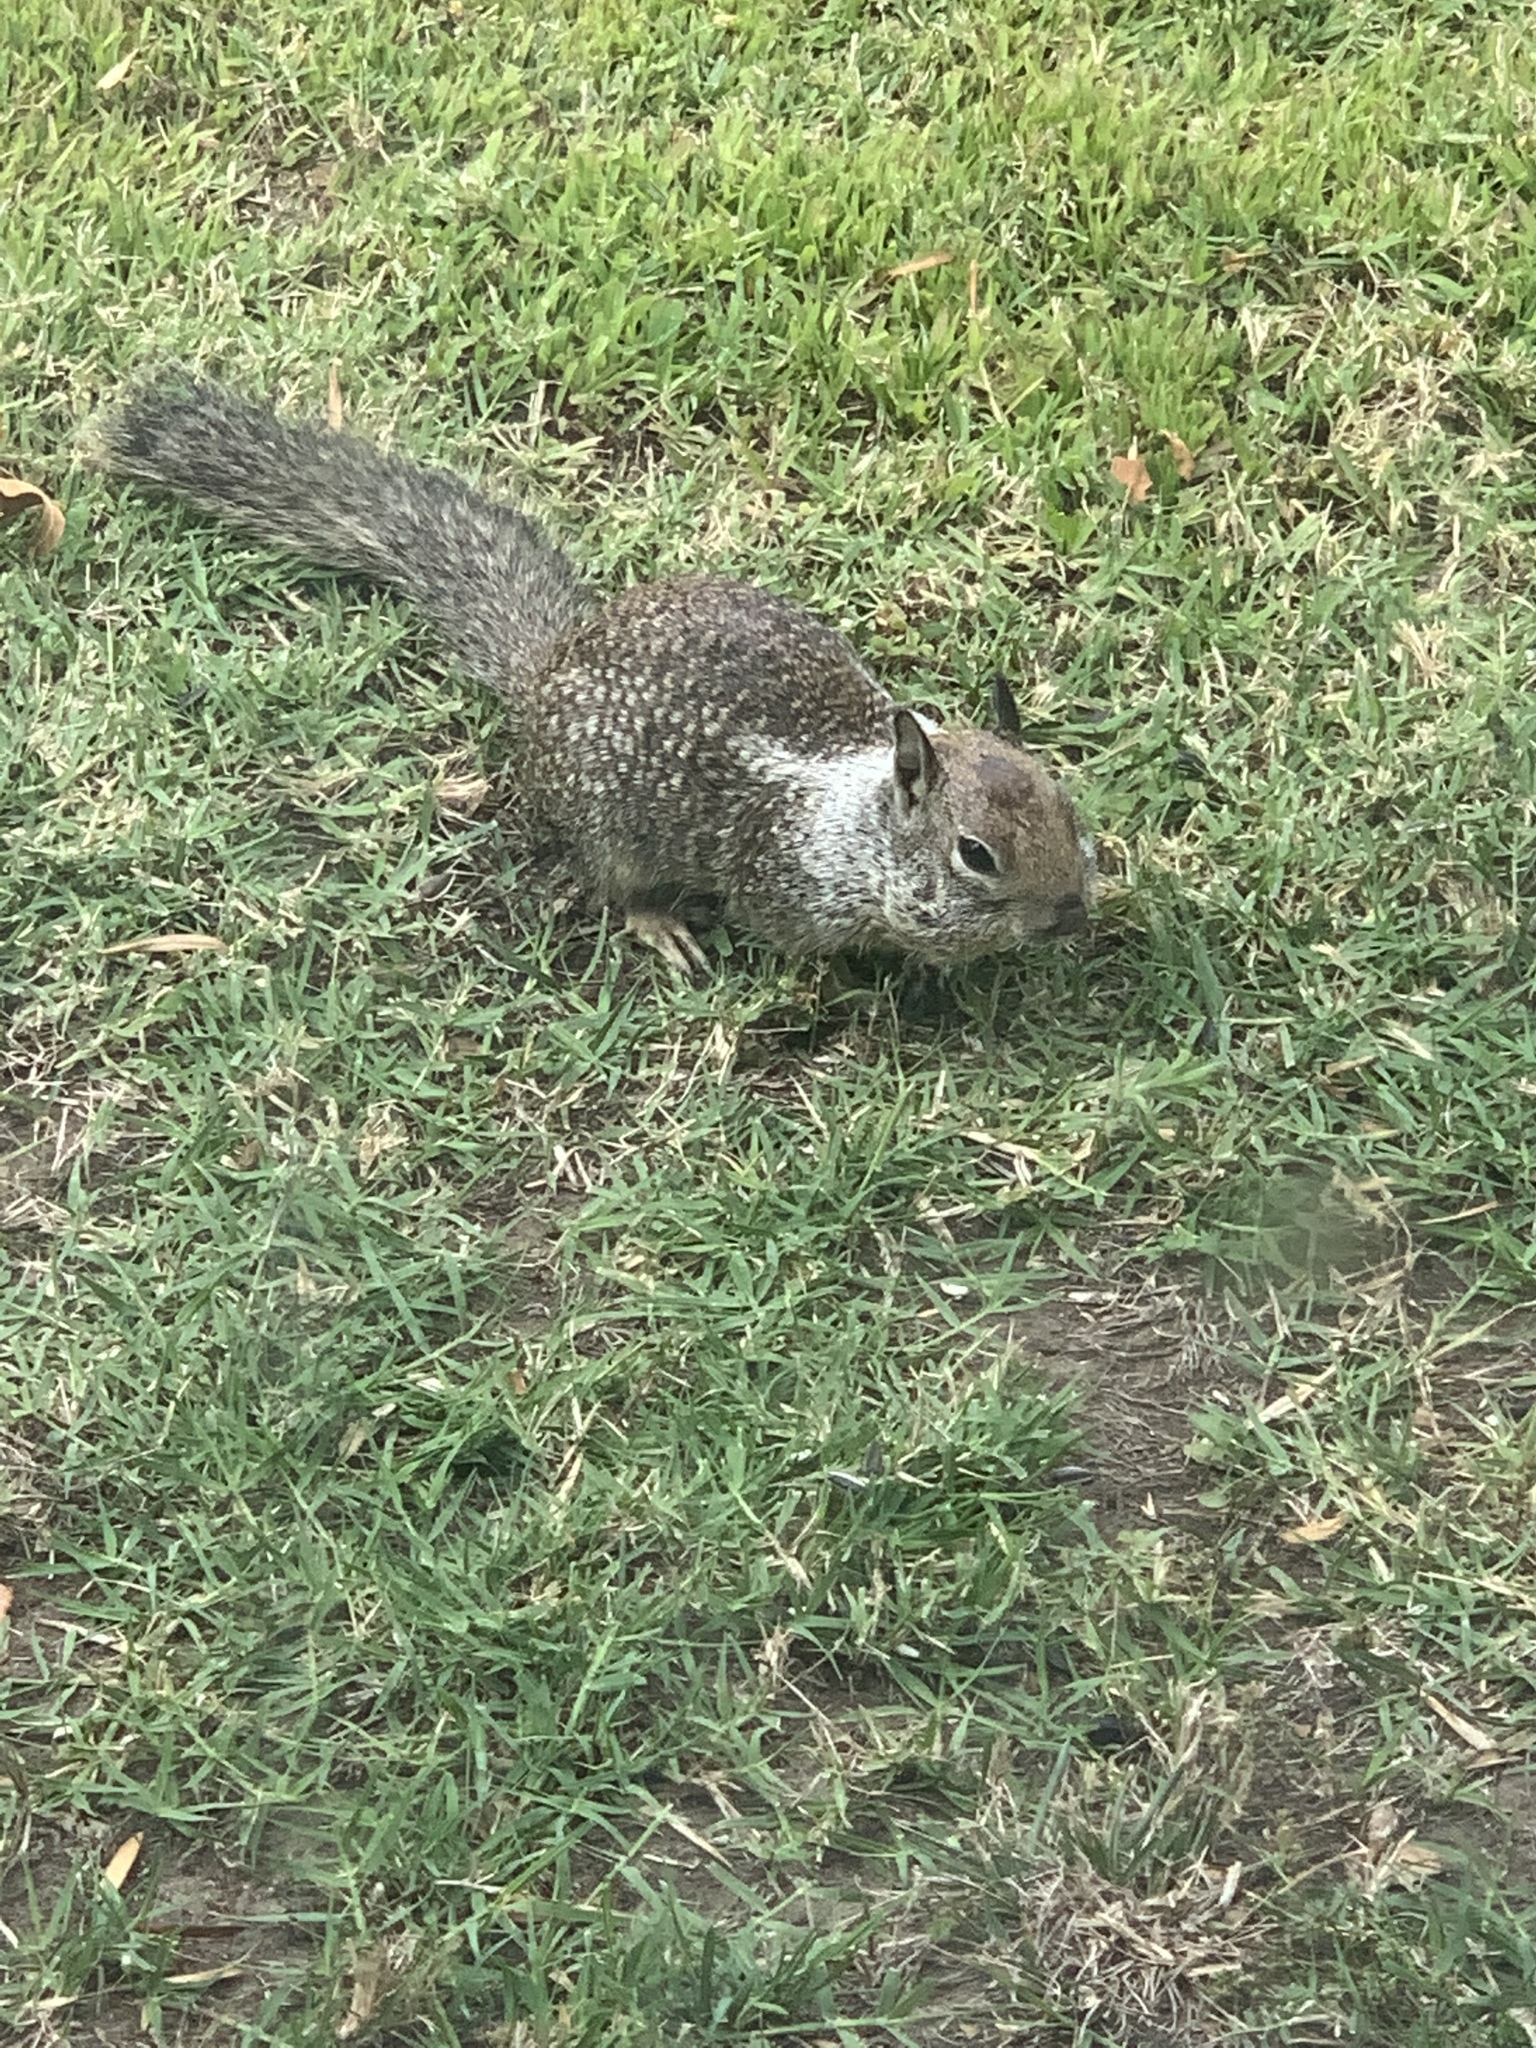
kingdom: Animalia
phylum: Chordata
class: Mammalia
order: Rodentia
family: Sciuridae
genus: Otospermophilus
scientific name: Otospermophilus beecheyi
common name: California ground squirrel
